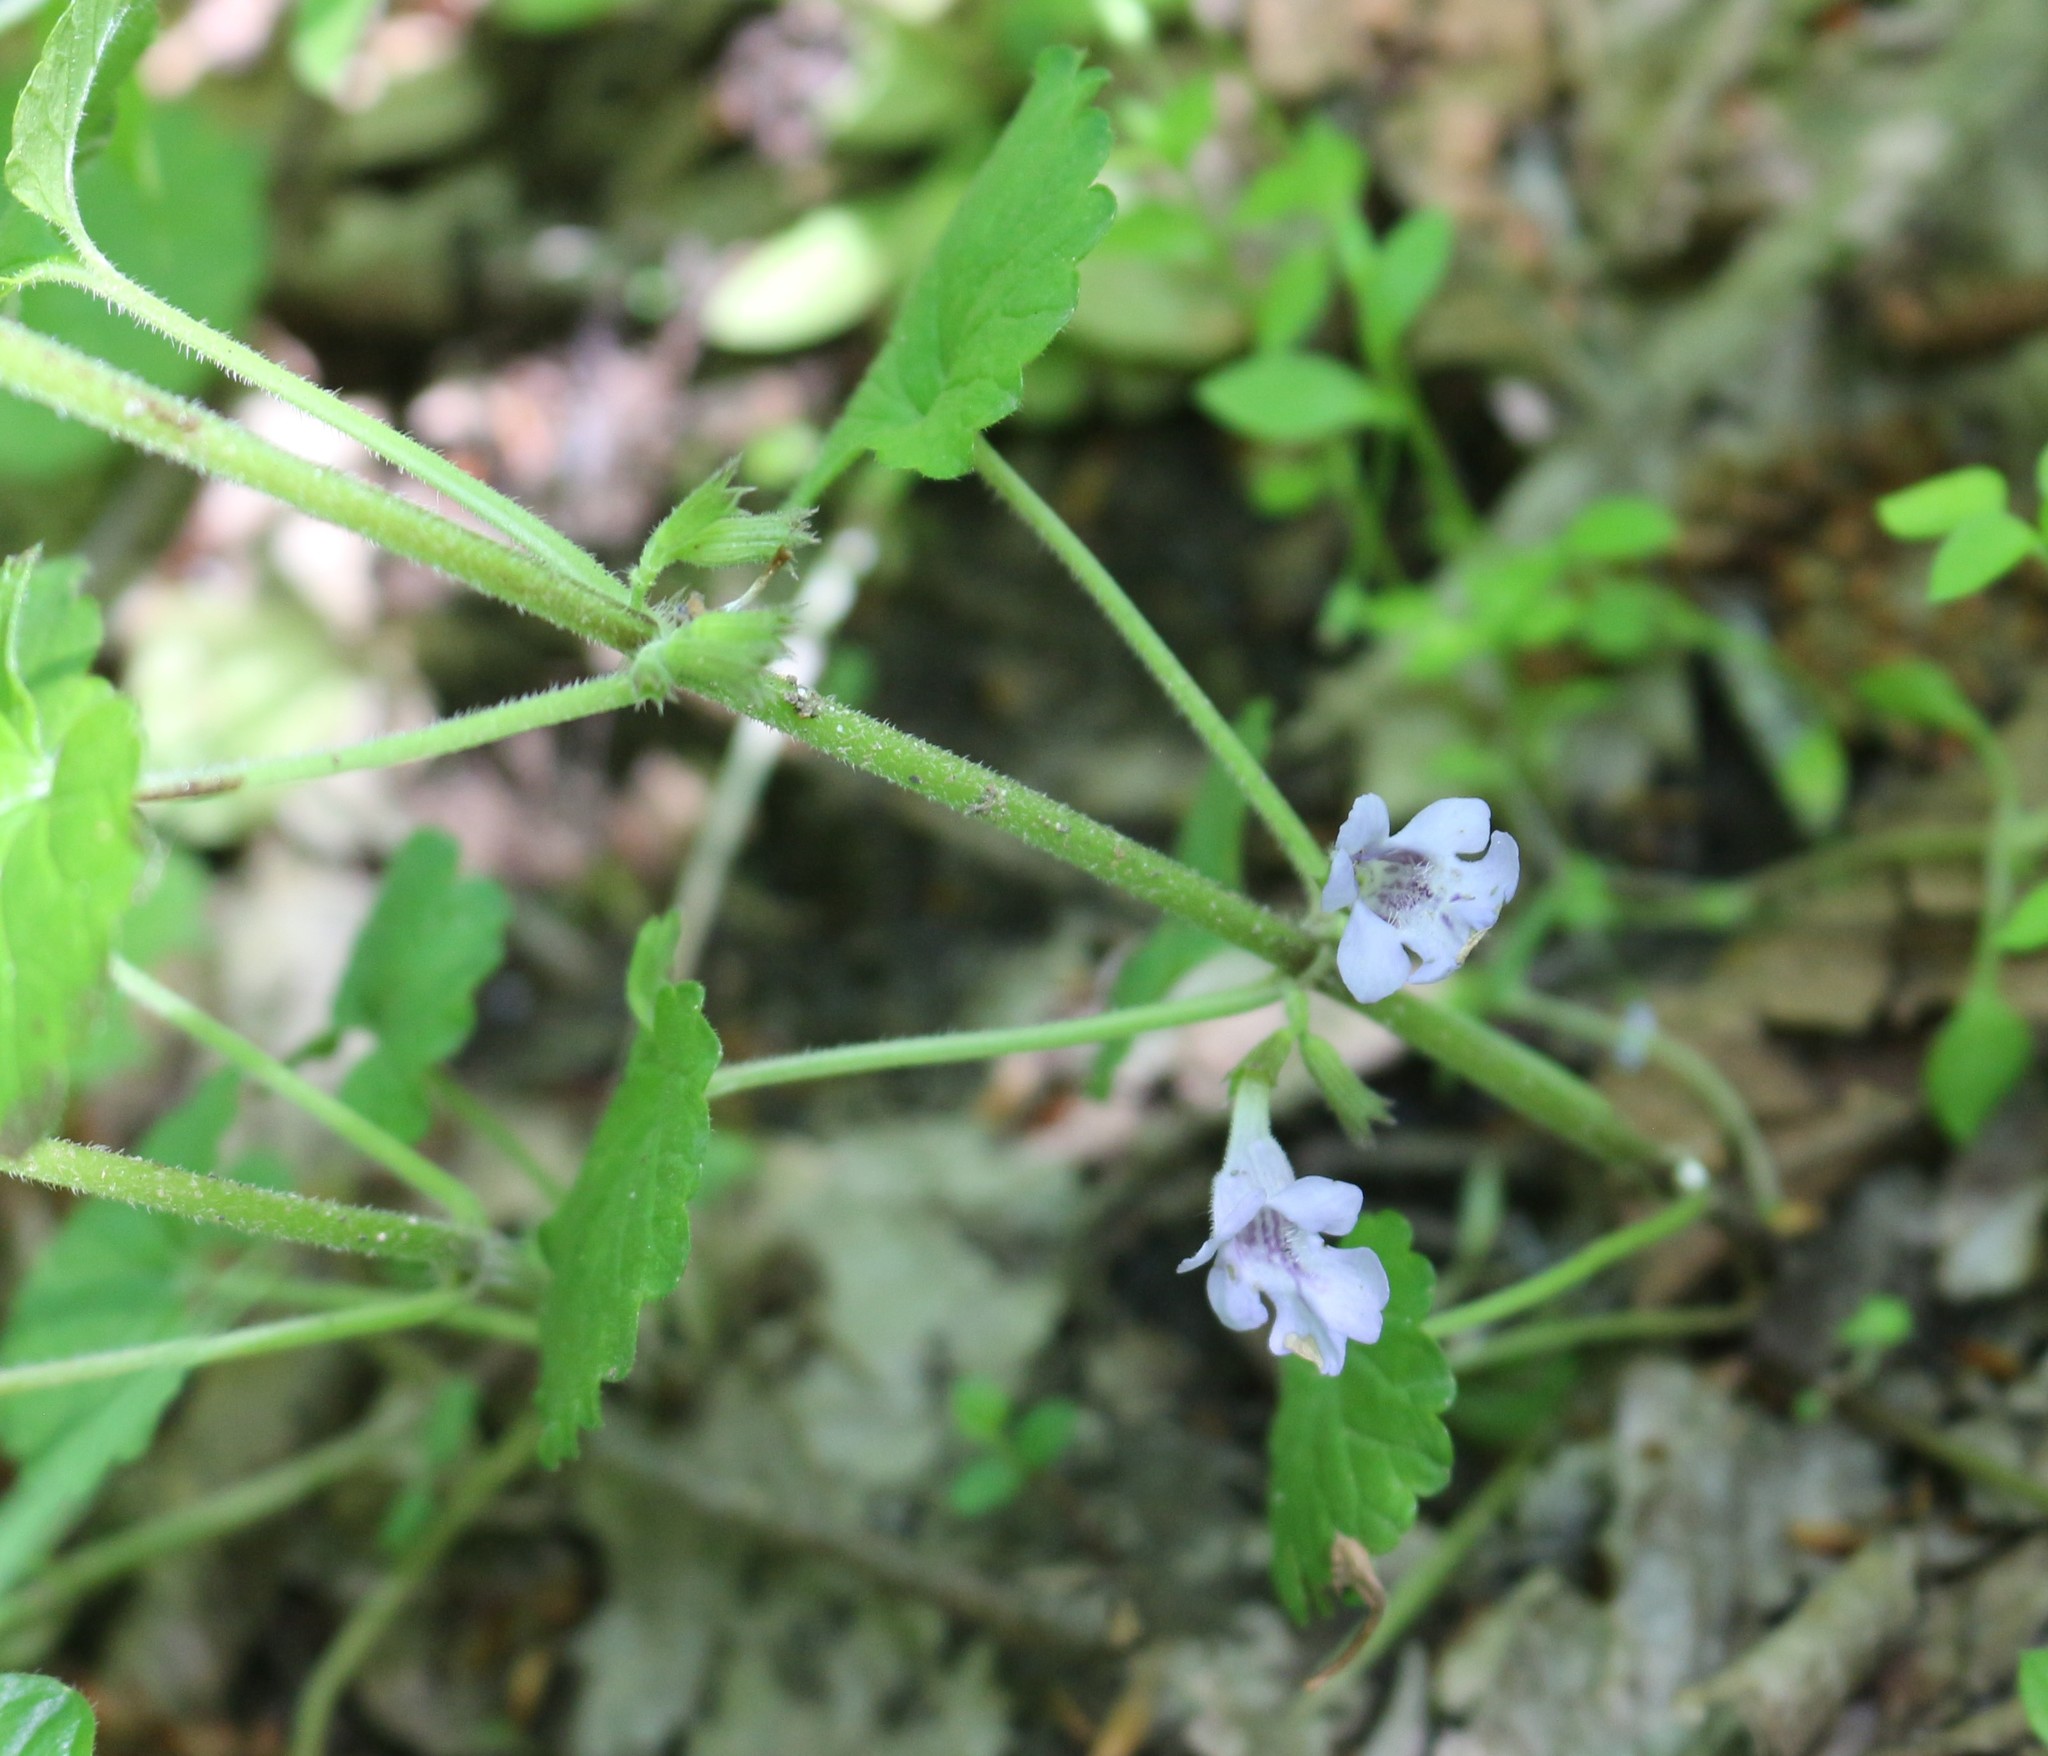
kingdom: Plantae
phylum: Tracheophyta
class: Magnoliopsida
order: Lamiales
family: Lamiaceae
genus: Glechoma
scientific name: Glechoma hederacea
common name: Ground ivy
